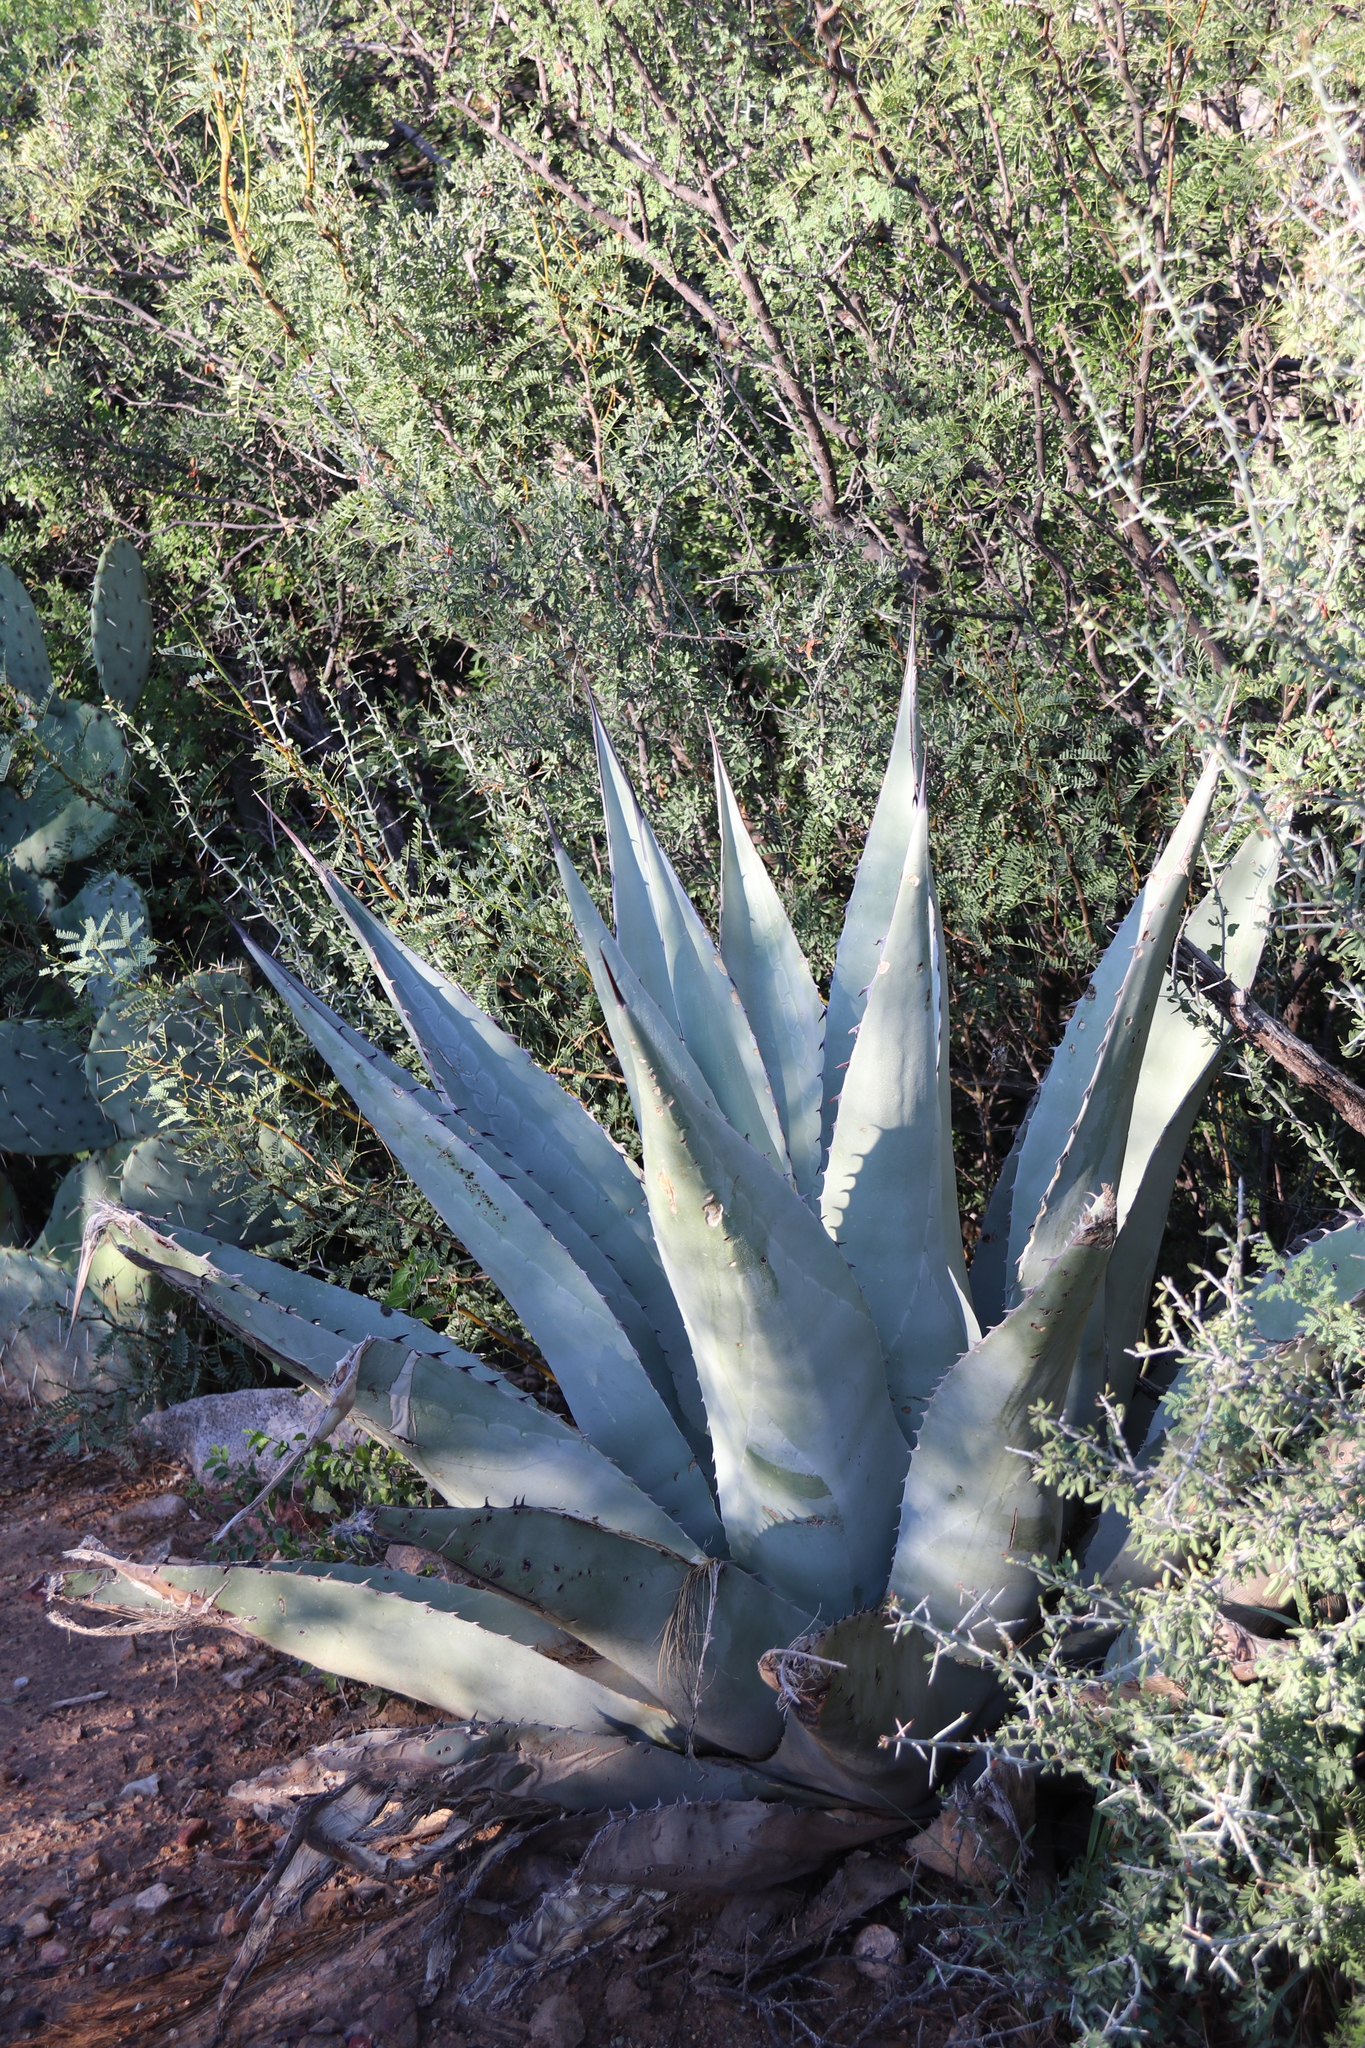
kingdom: Plantae
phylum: Tracheophyta
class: Liliopsida
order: Asparagales
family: Asparagaceae
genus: Agave
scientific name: Agave havardiana
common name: Havard agave
